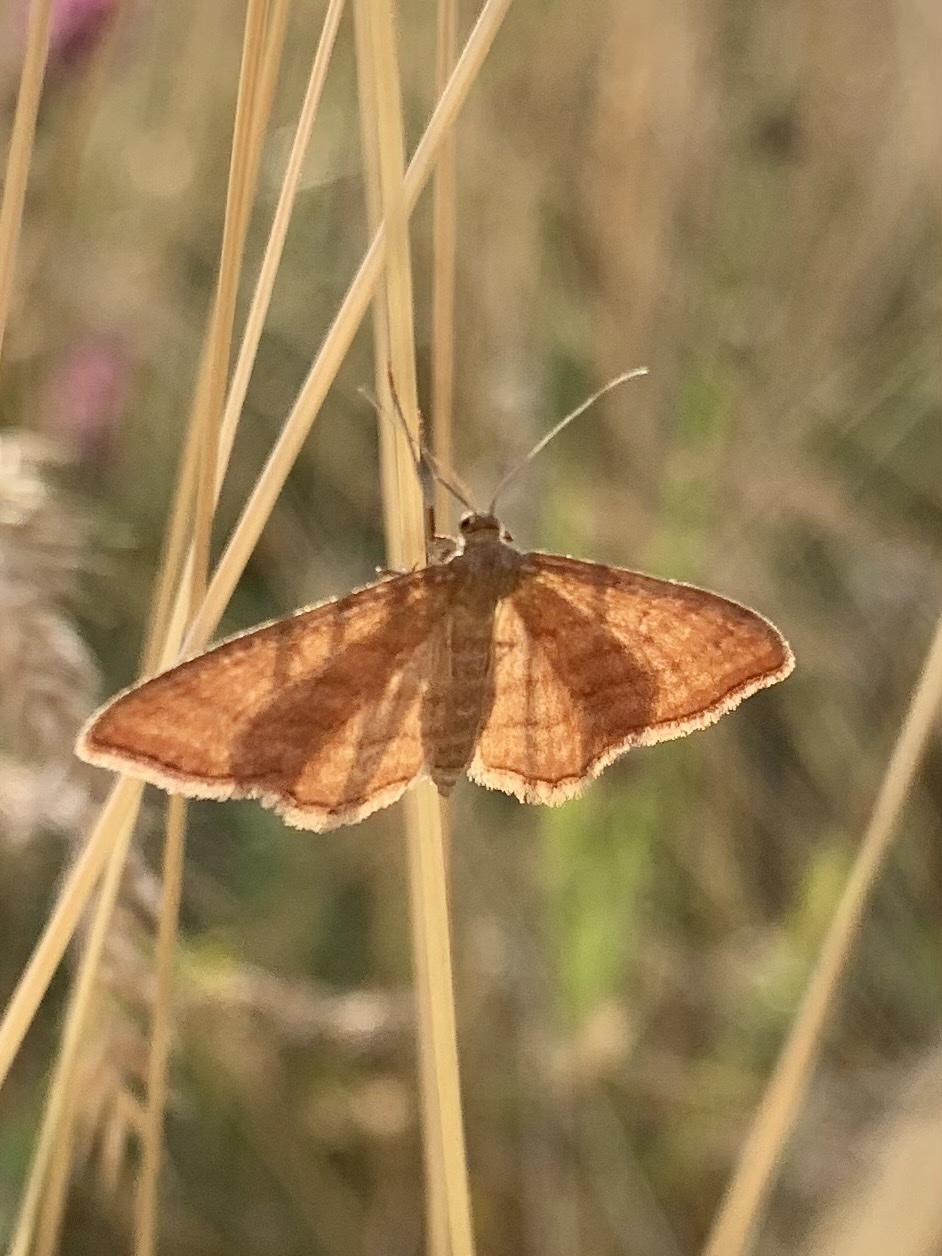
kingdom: Animalia
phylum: Arthropoda
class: Insecta
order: Lepidoptera
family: Geometridae
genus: Idaea
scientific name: Idaea ochrata
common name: Bright wave
